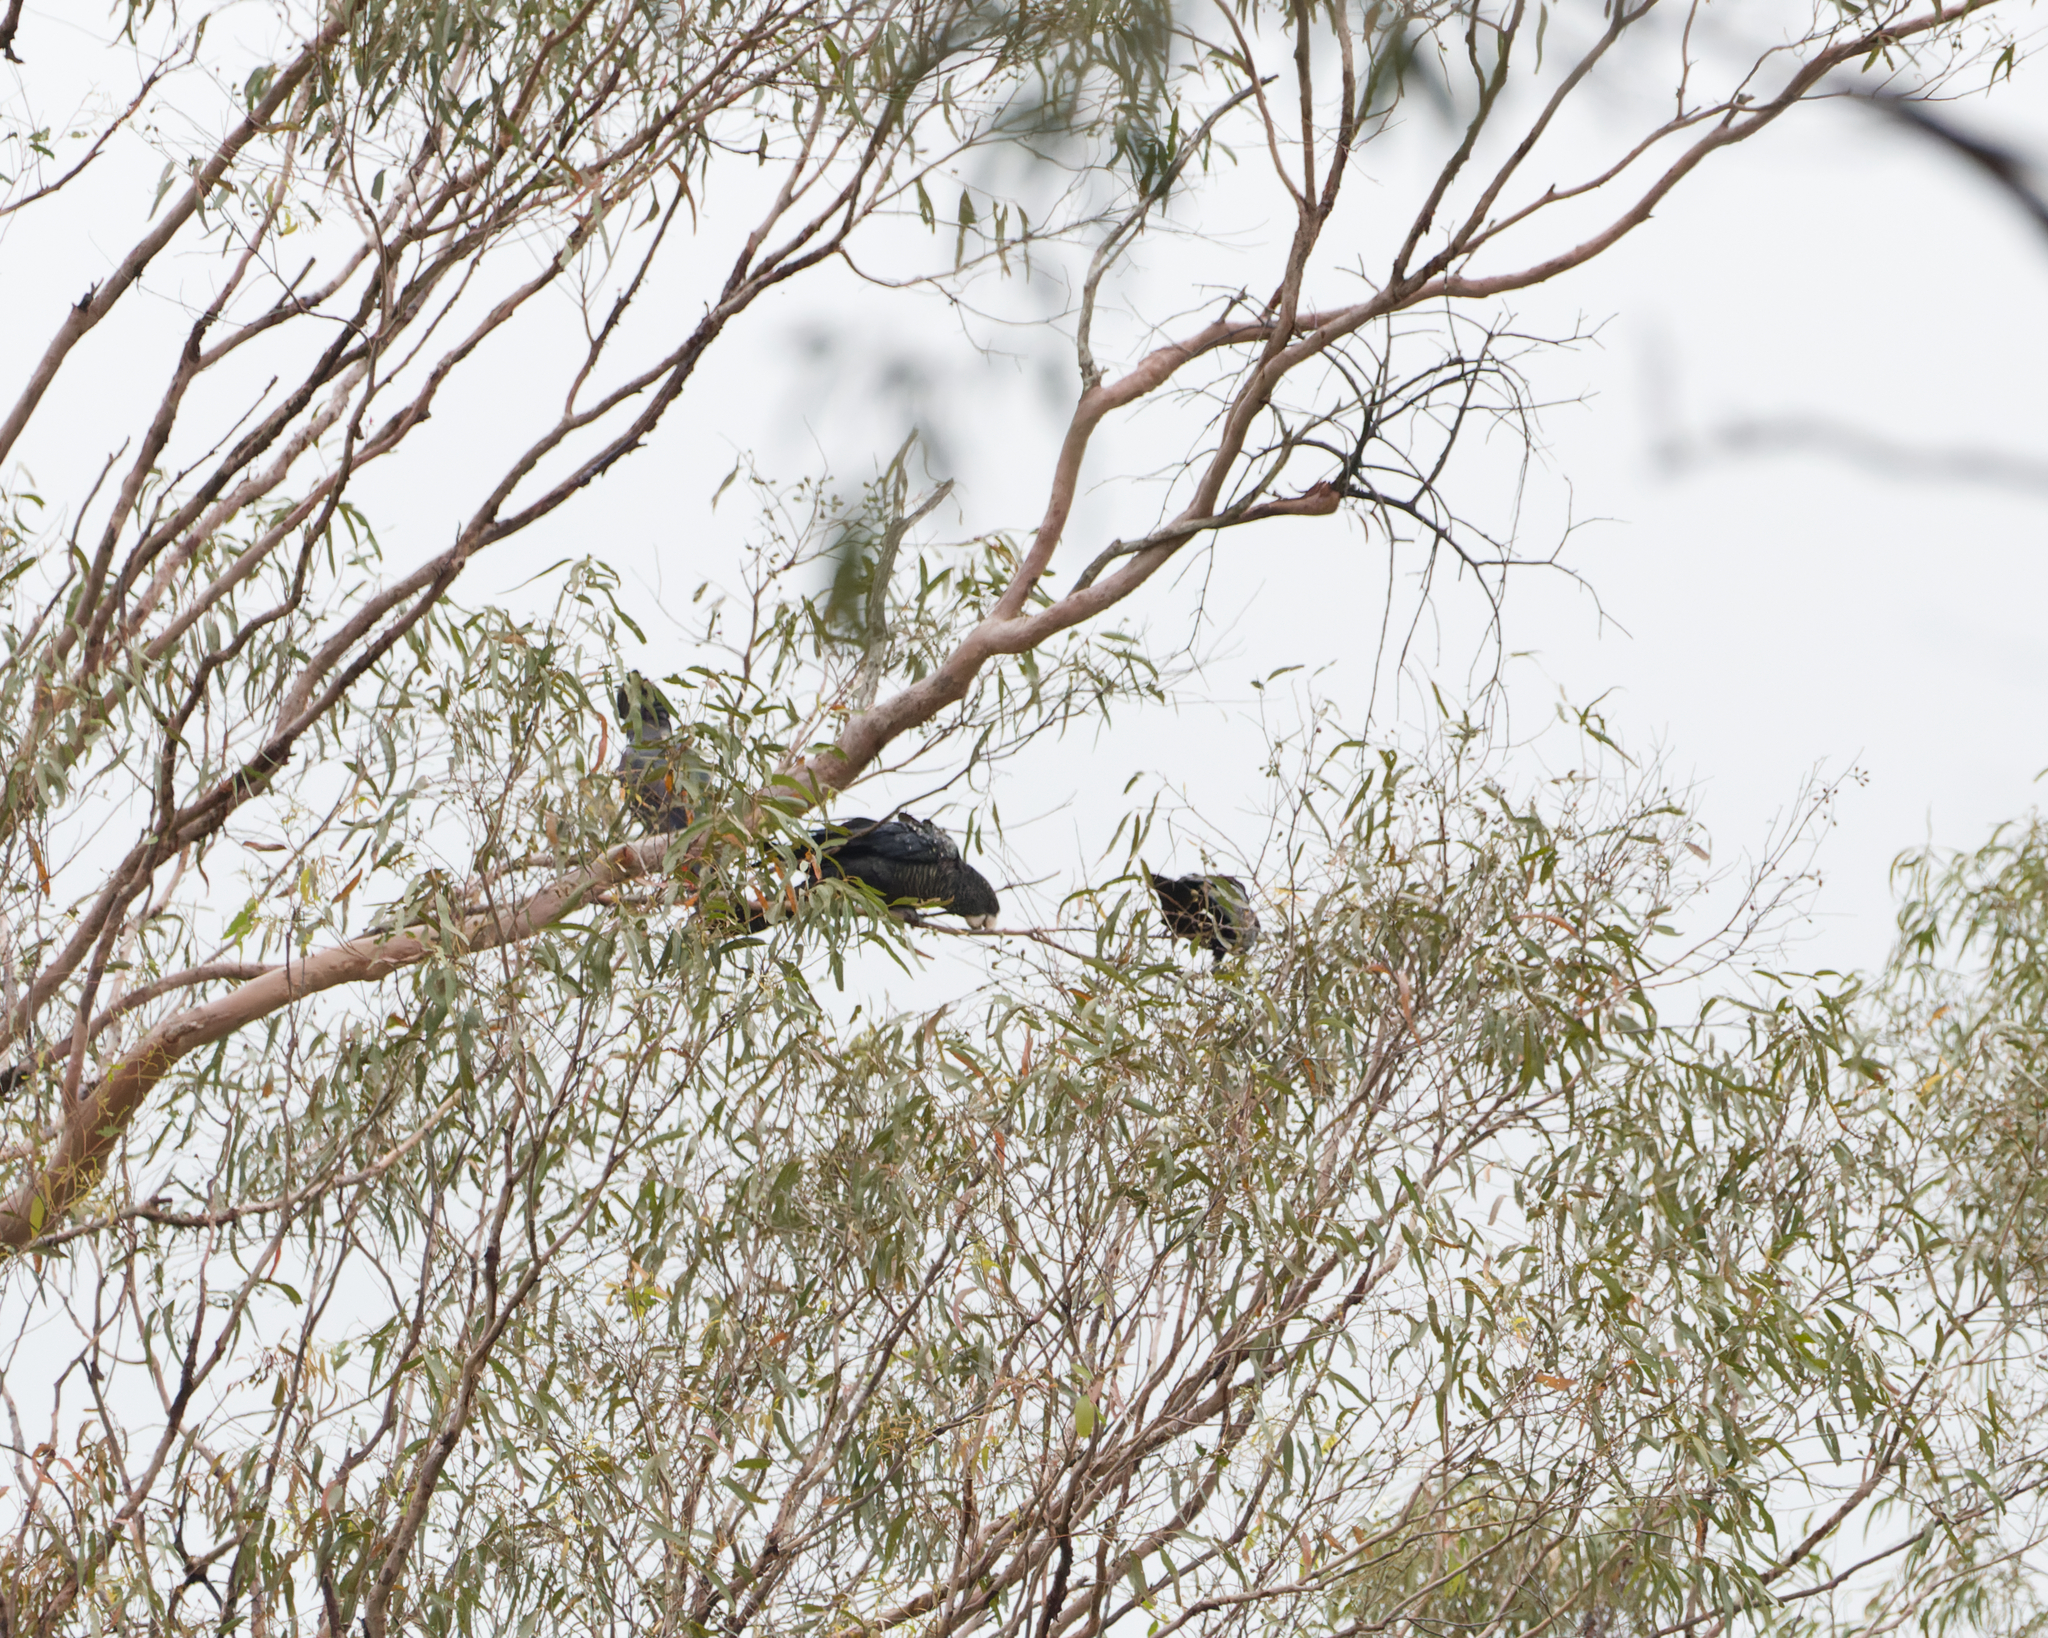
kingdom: Animalia
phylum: Chordata
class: Aves
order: Psittaciformes
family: Psittacidae
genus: Calyptorhynchus
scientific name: Calyptorhynchus banksii
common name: Red-tailed black cockatoo
